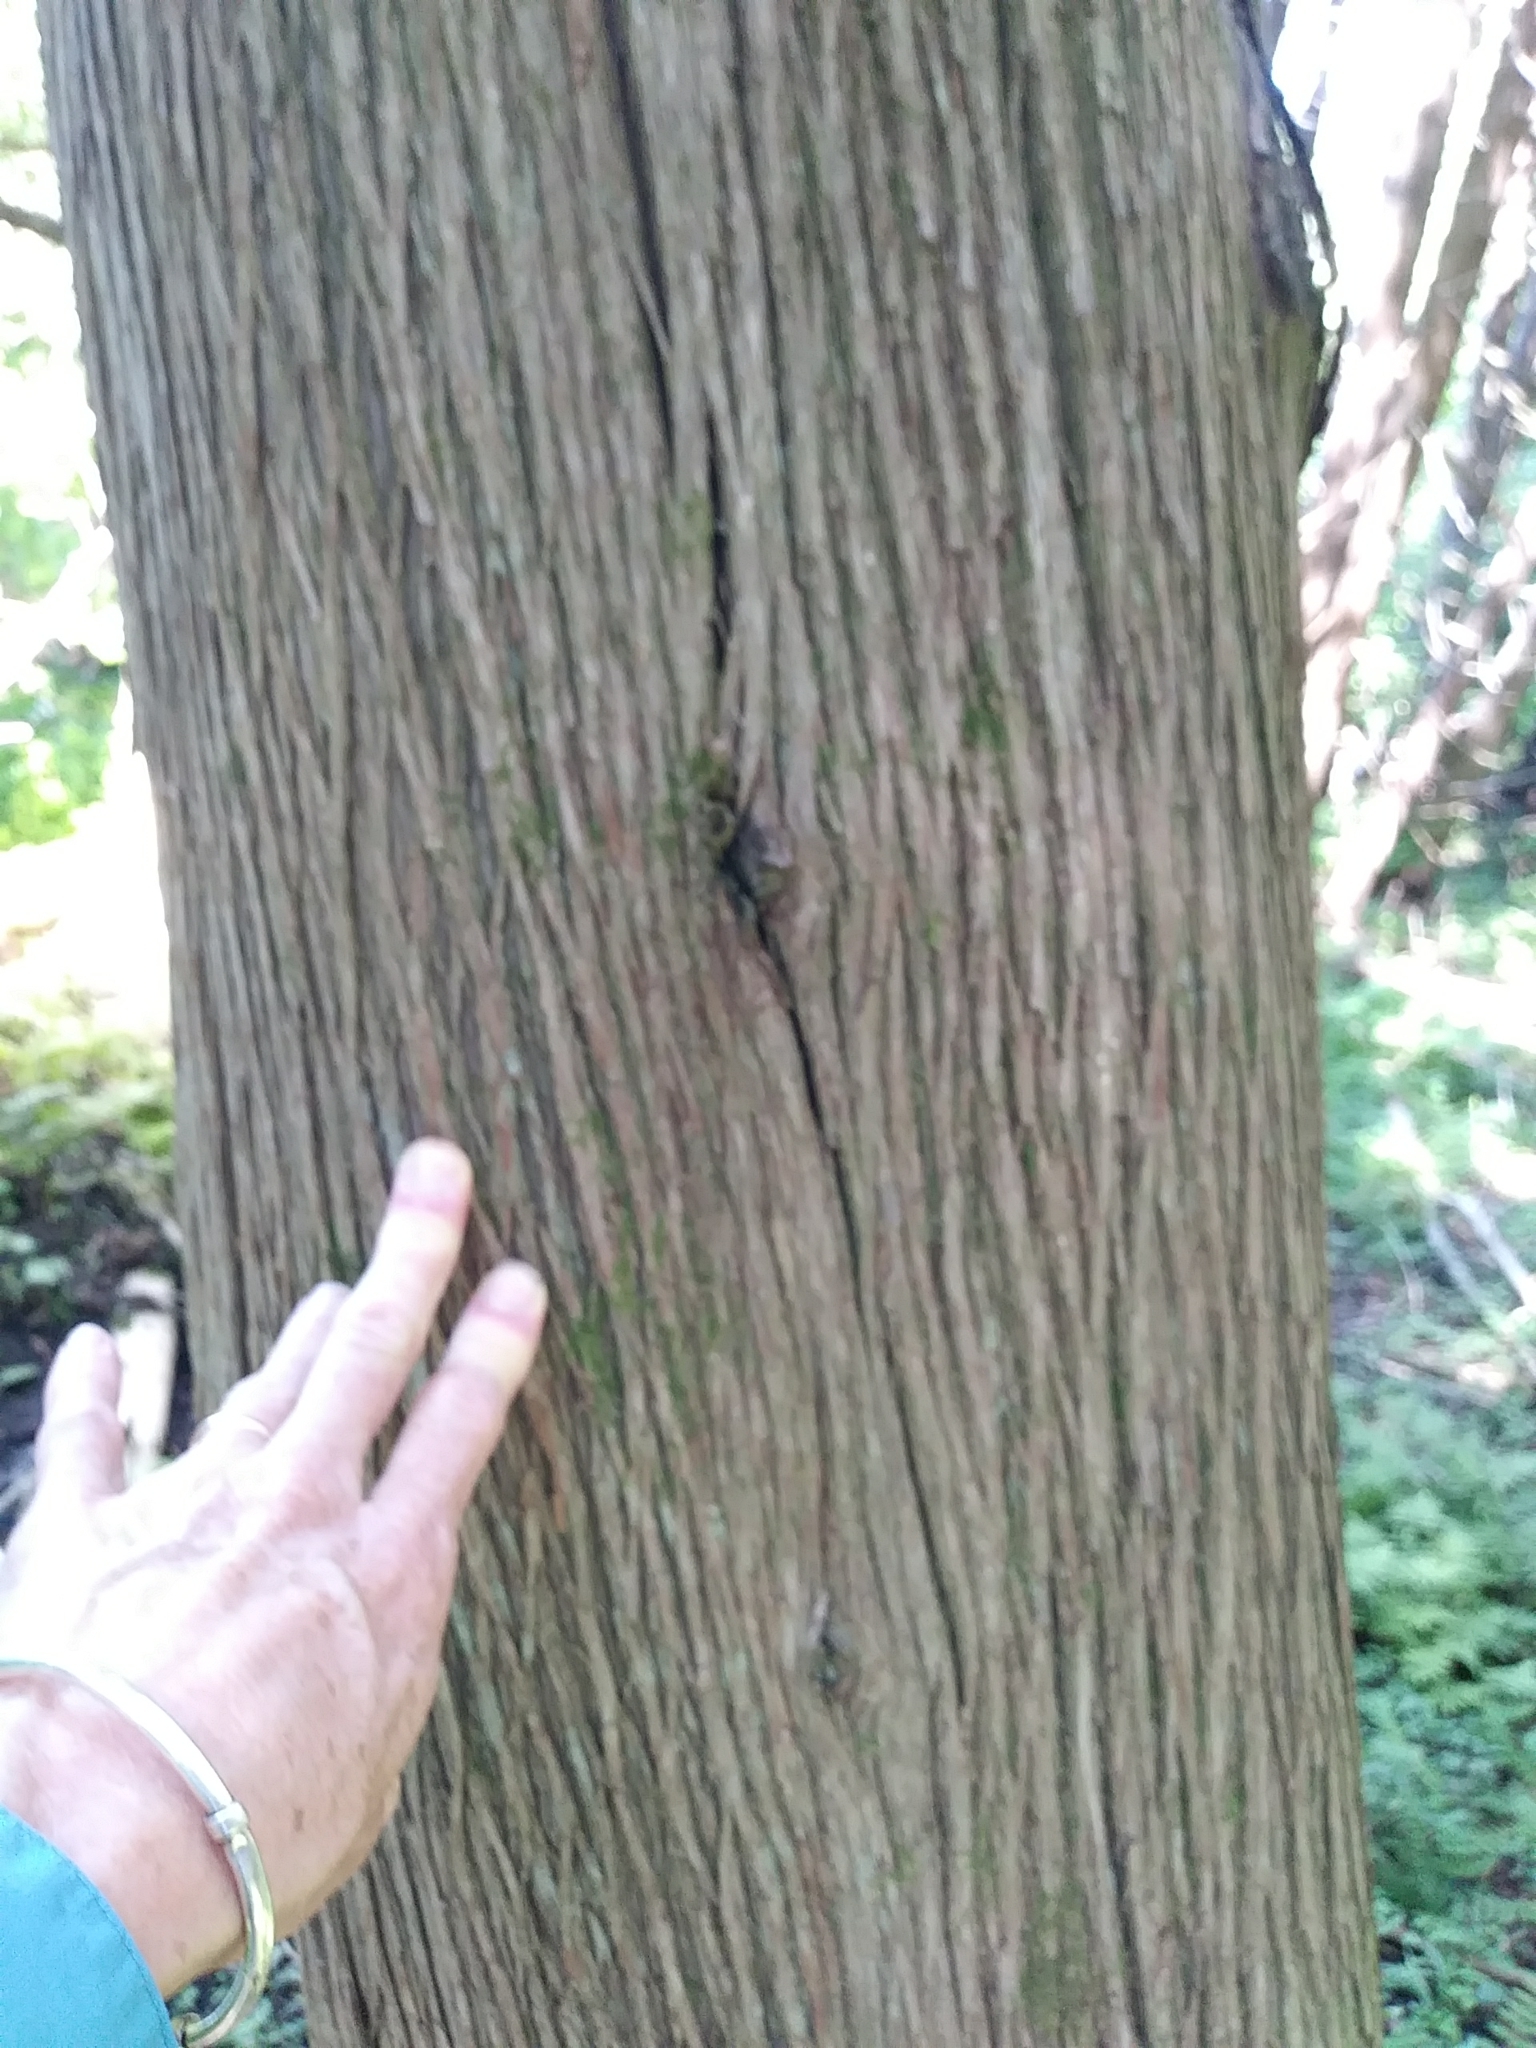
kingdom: Plantae
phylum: Tracheophyta
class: Pinopsida
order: Pinales
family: Cupressaceae
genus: Thuja
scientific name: Thuja occidentalis
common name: Northern white-cedar
